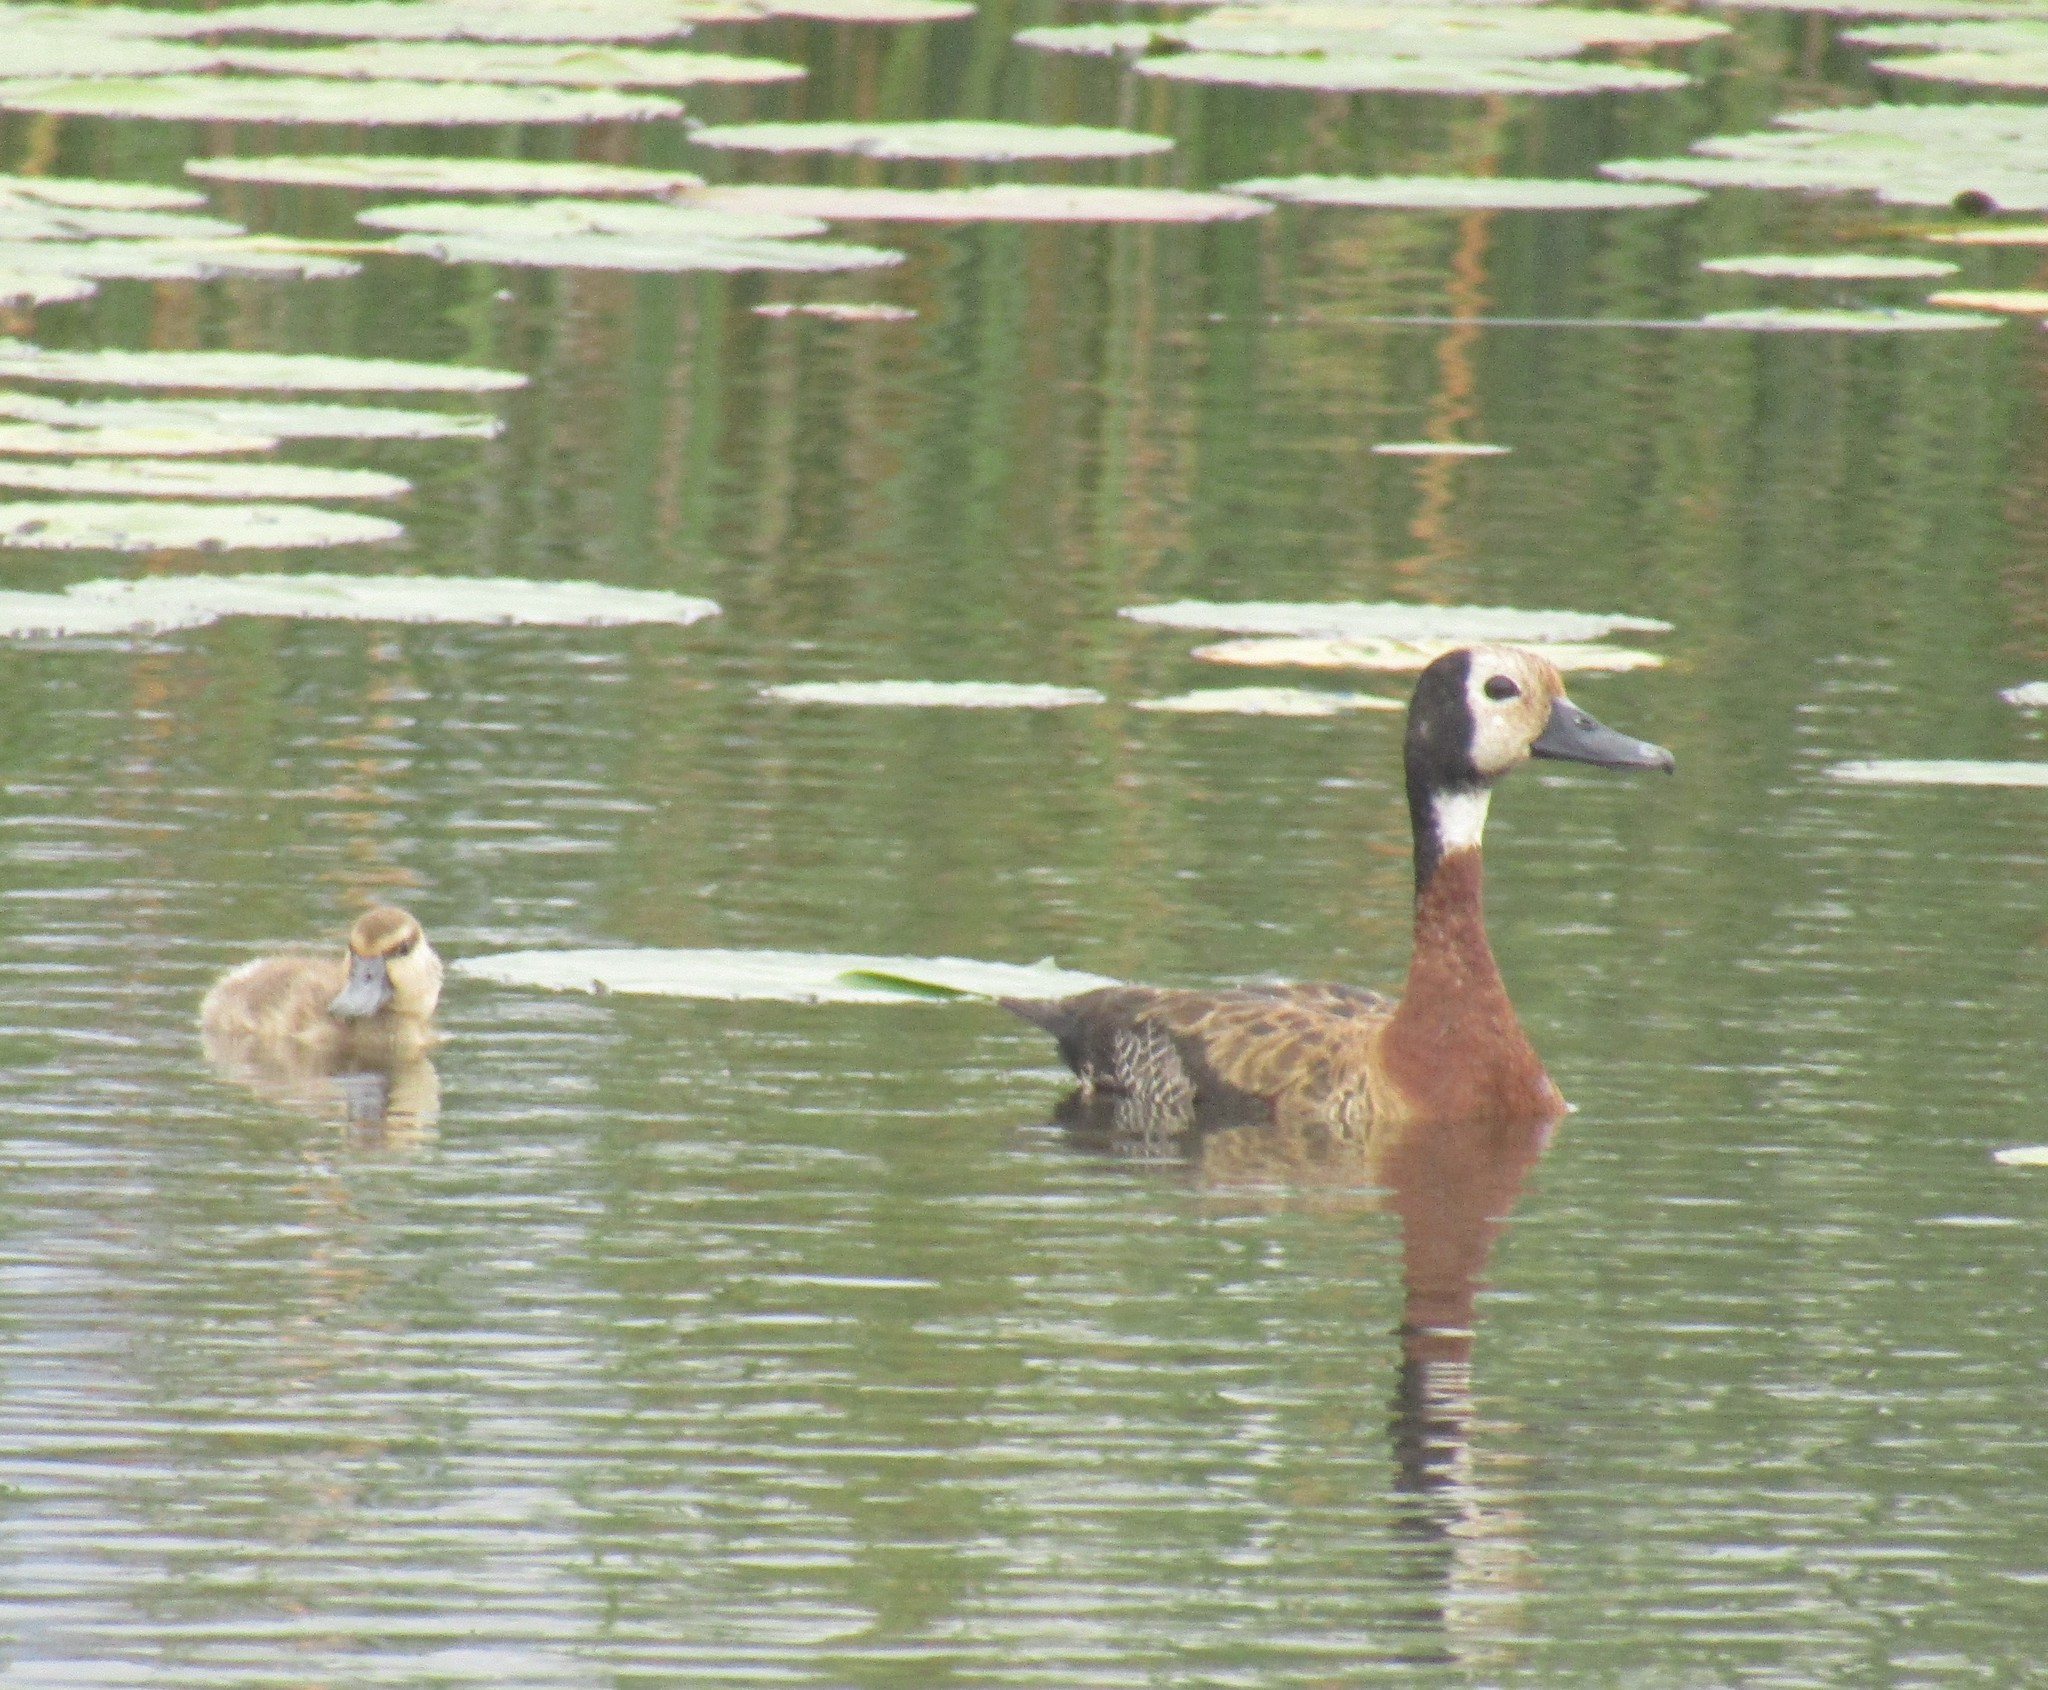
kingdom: Animalia
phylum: Chordata
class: Aves
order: Anseriformes
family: Anatidae
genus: Dendrocygna
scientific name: Dendrocygna viduata
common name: White-faced whistling duck
